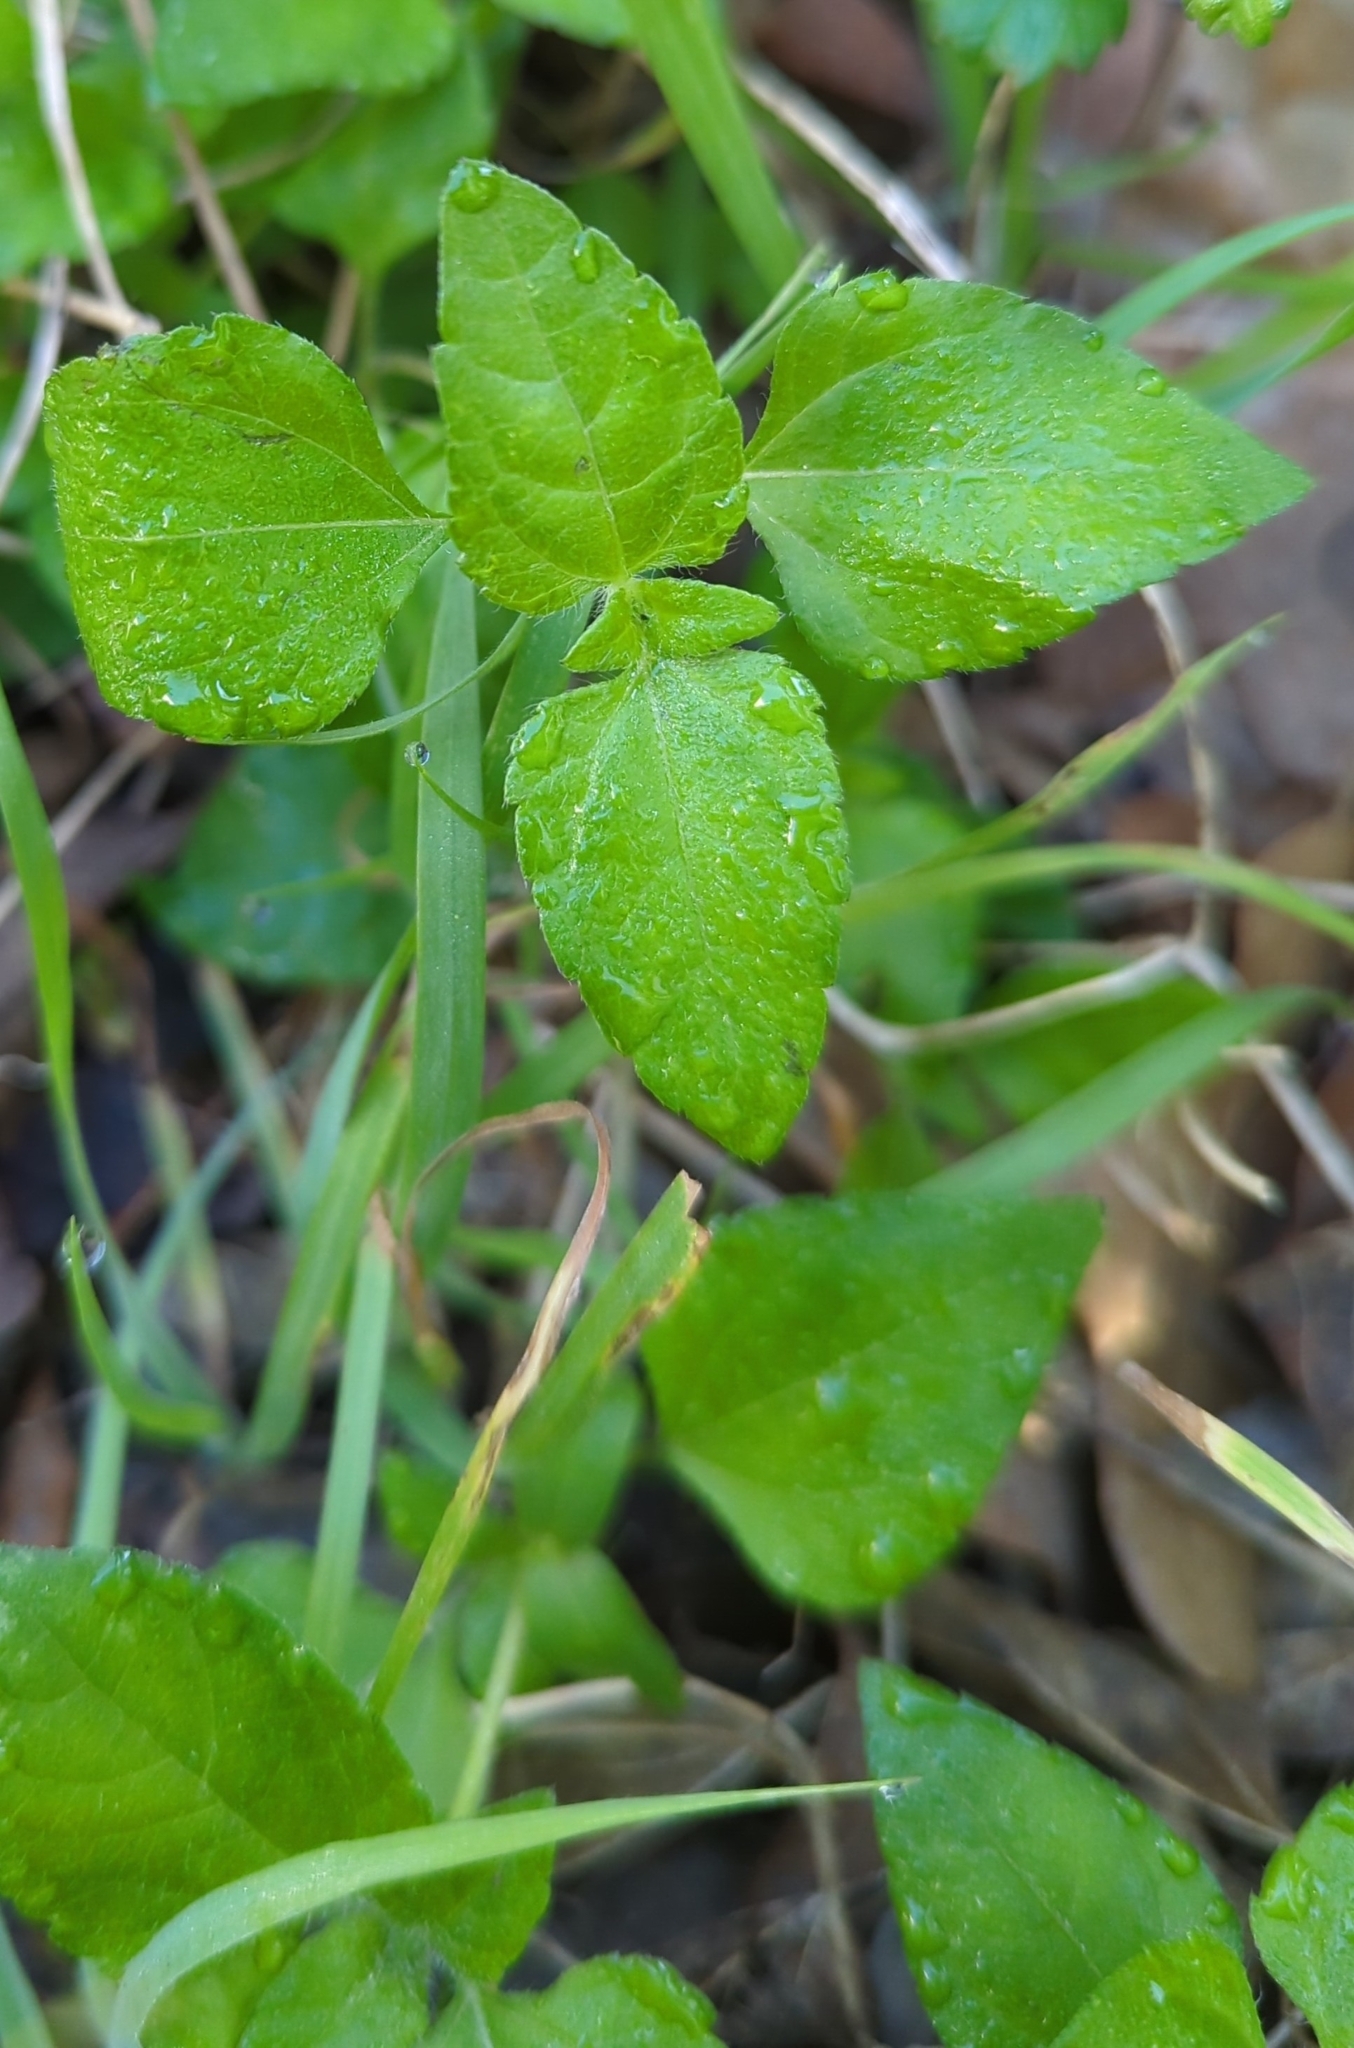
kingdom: Plantae
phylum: Tracheophyta
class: Magnoliopsida
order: Asterales
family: Asteraceae
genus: Calyptocarpus
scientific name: Calyptocarpus vialis
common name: Straggler daisy
